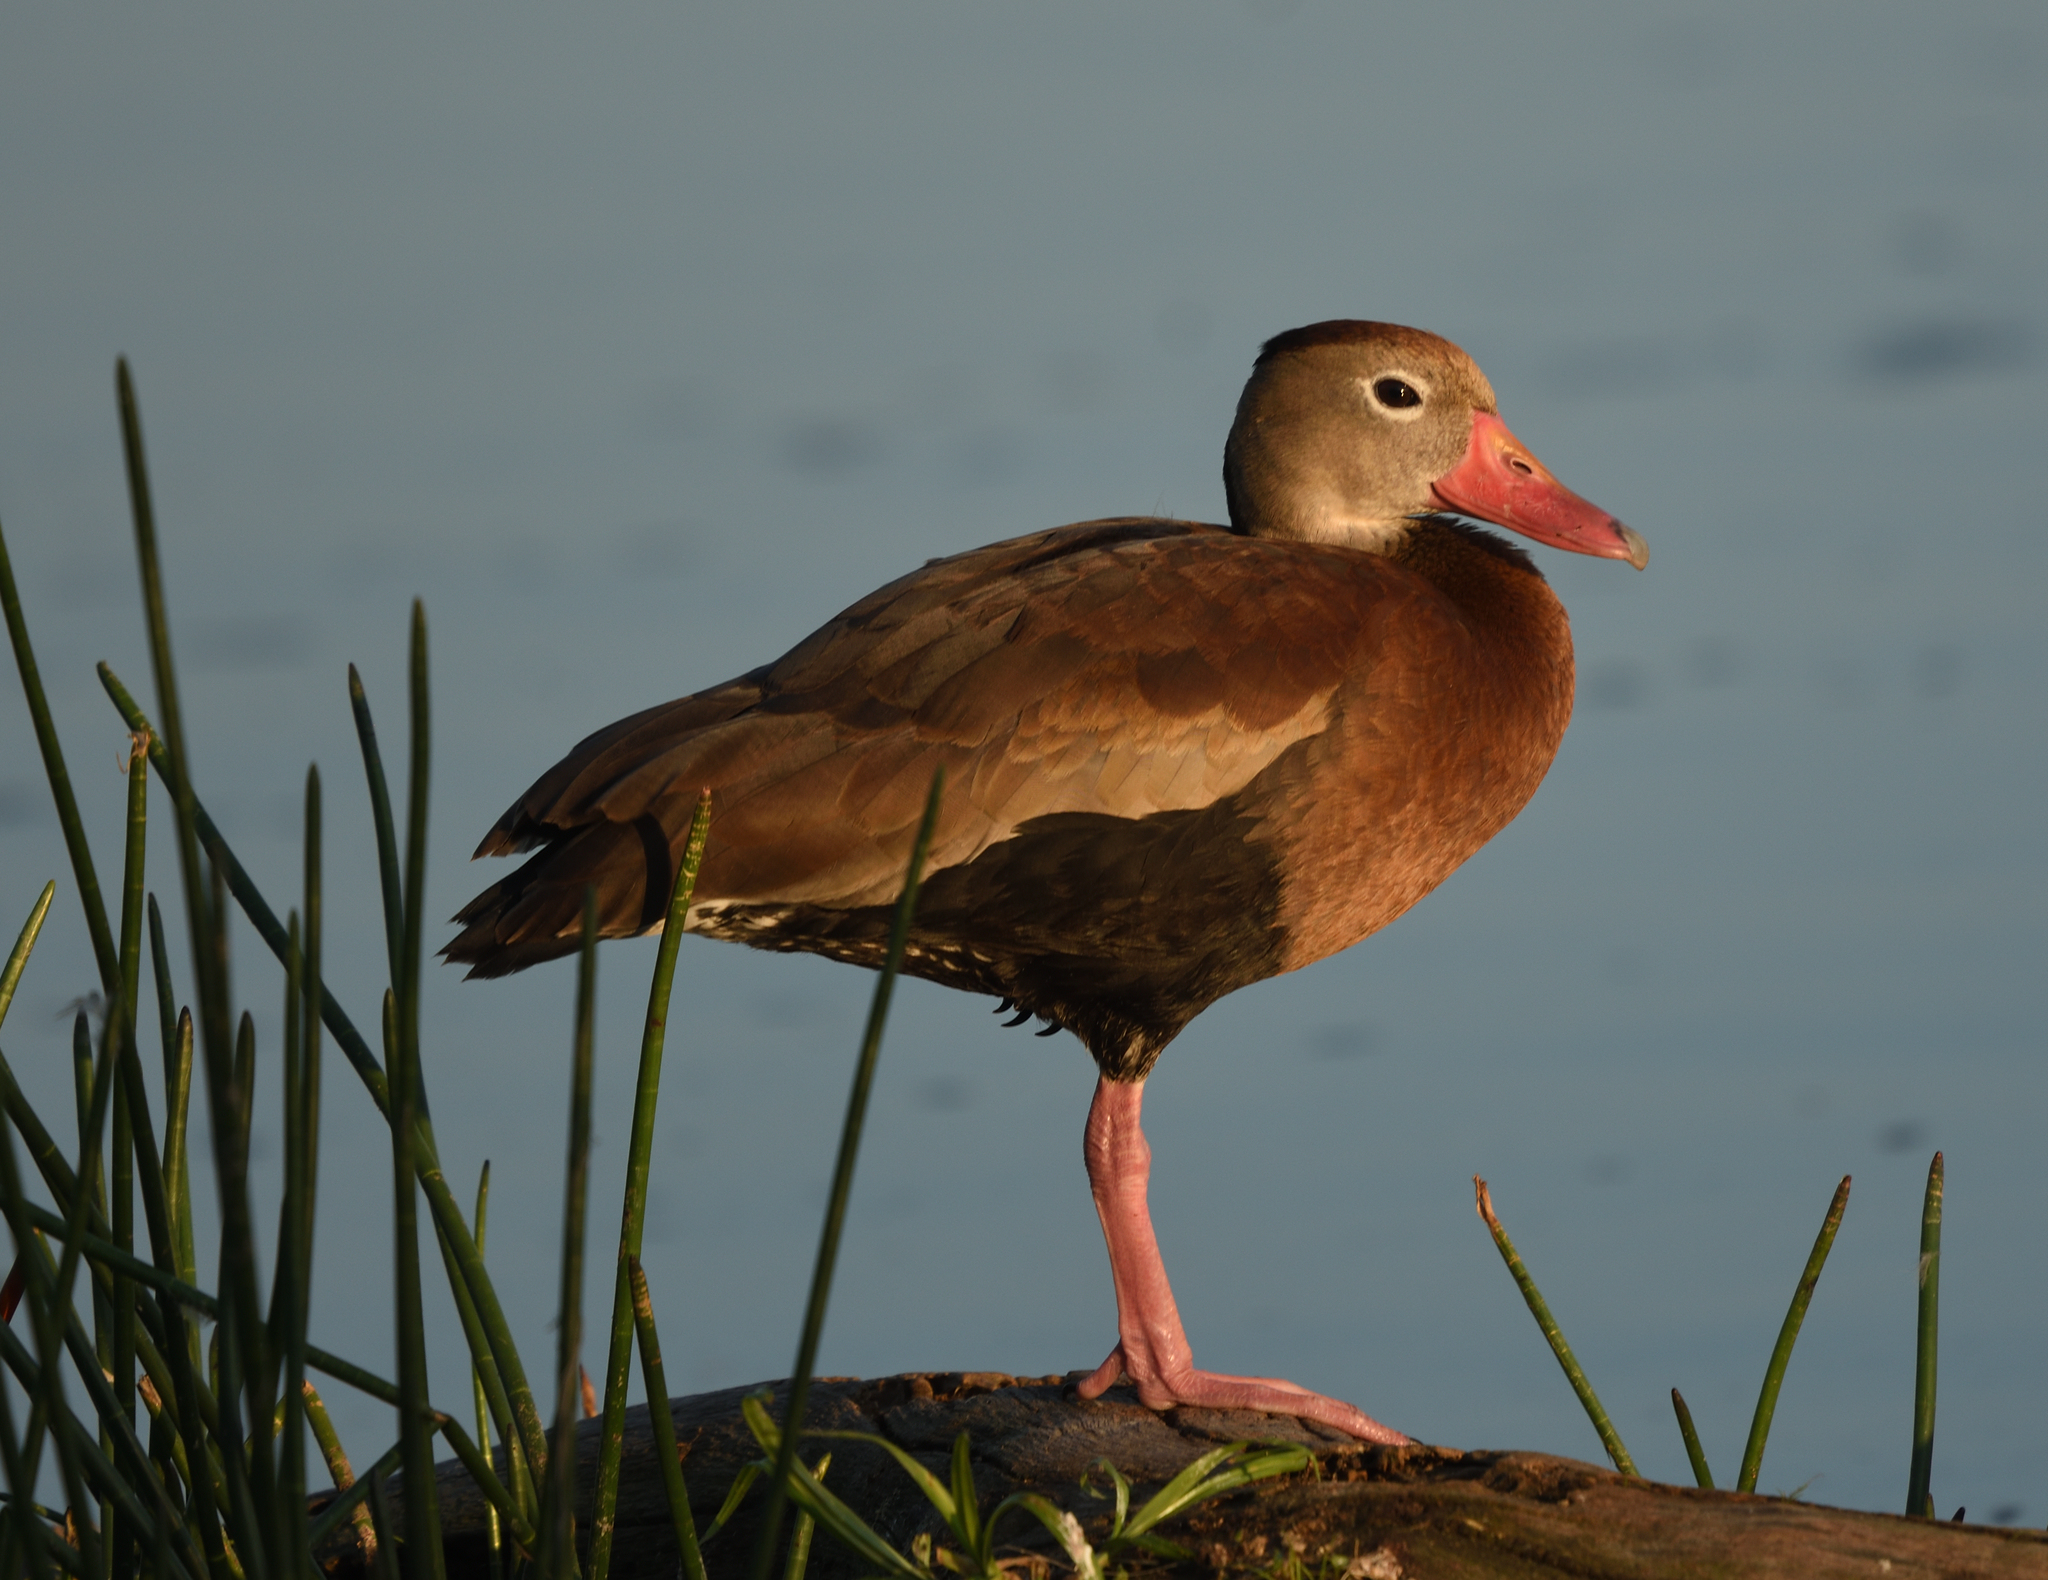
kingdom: Animalia
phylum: Chordata
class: Aves
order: Anseriformes
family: Anatidae
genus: Dendrocygna
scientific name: Dendrocygna autumnalis
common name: Black-bellied whistling duck
